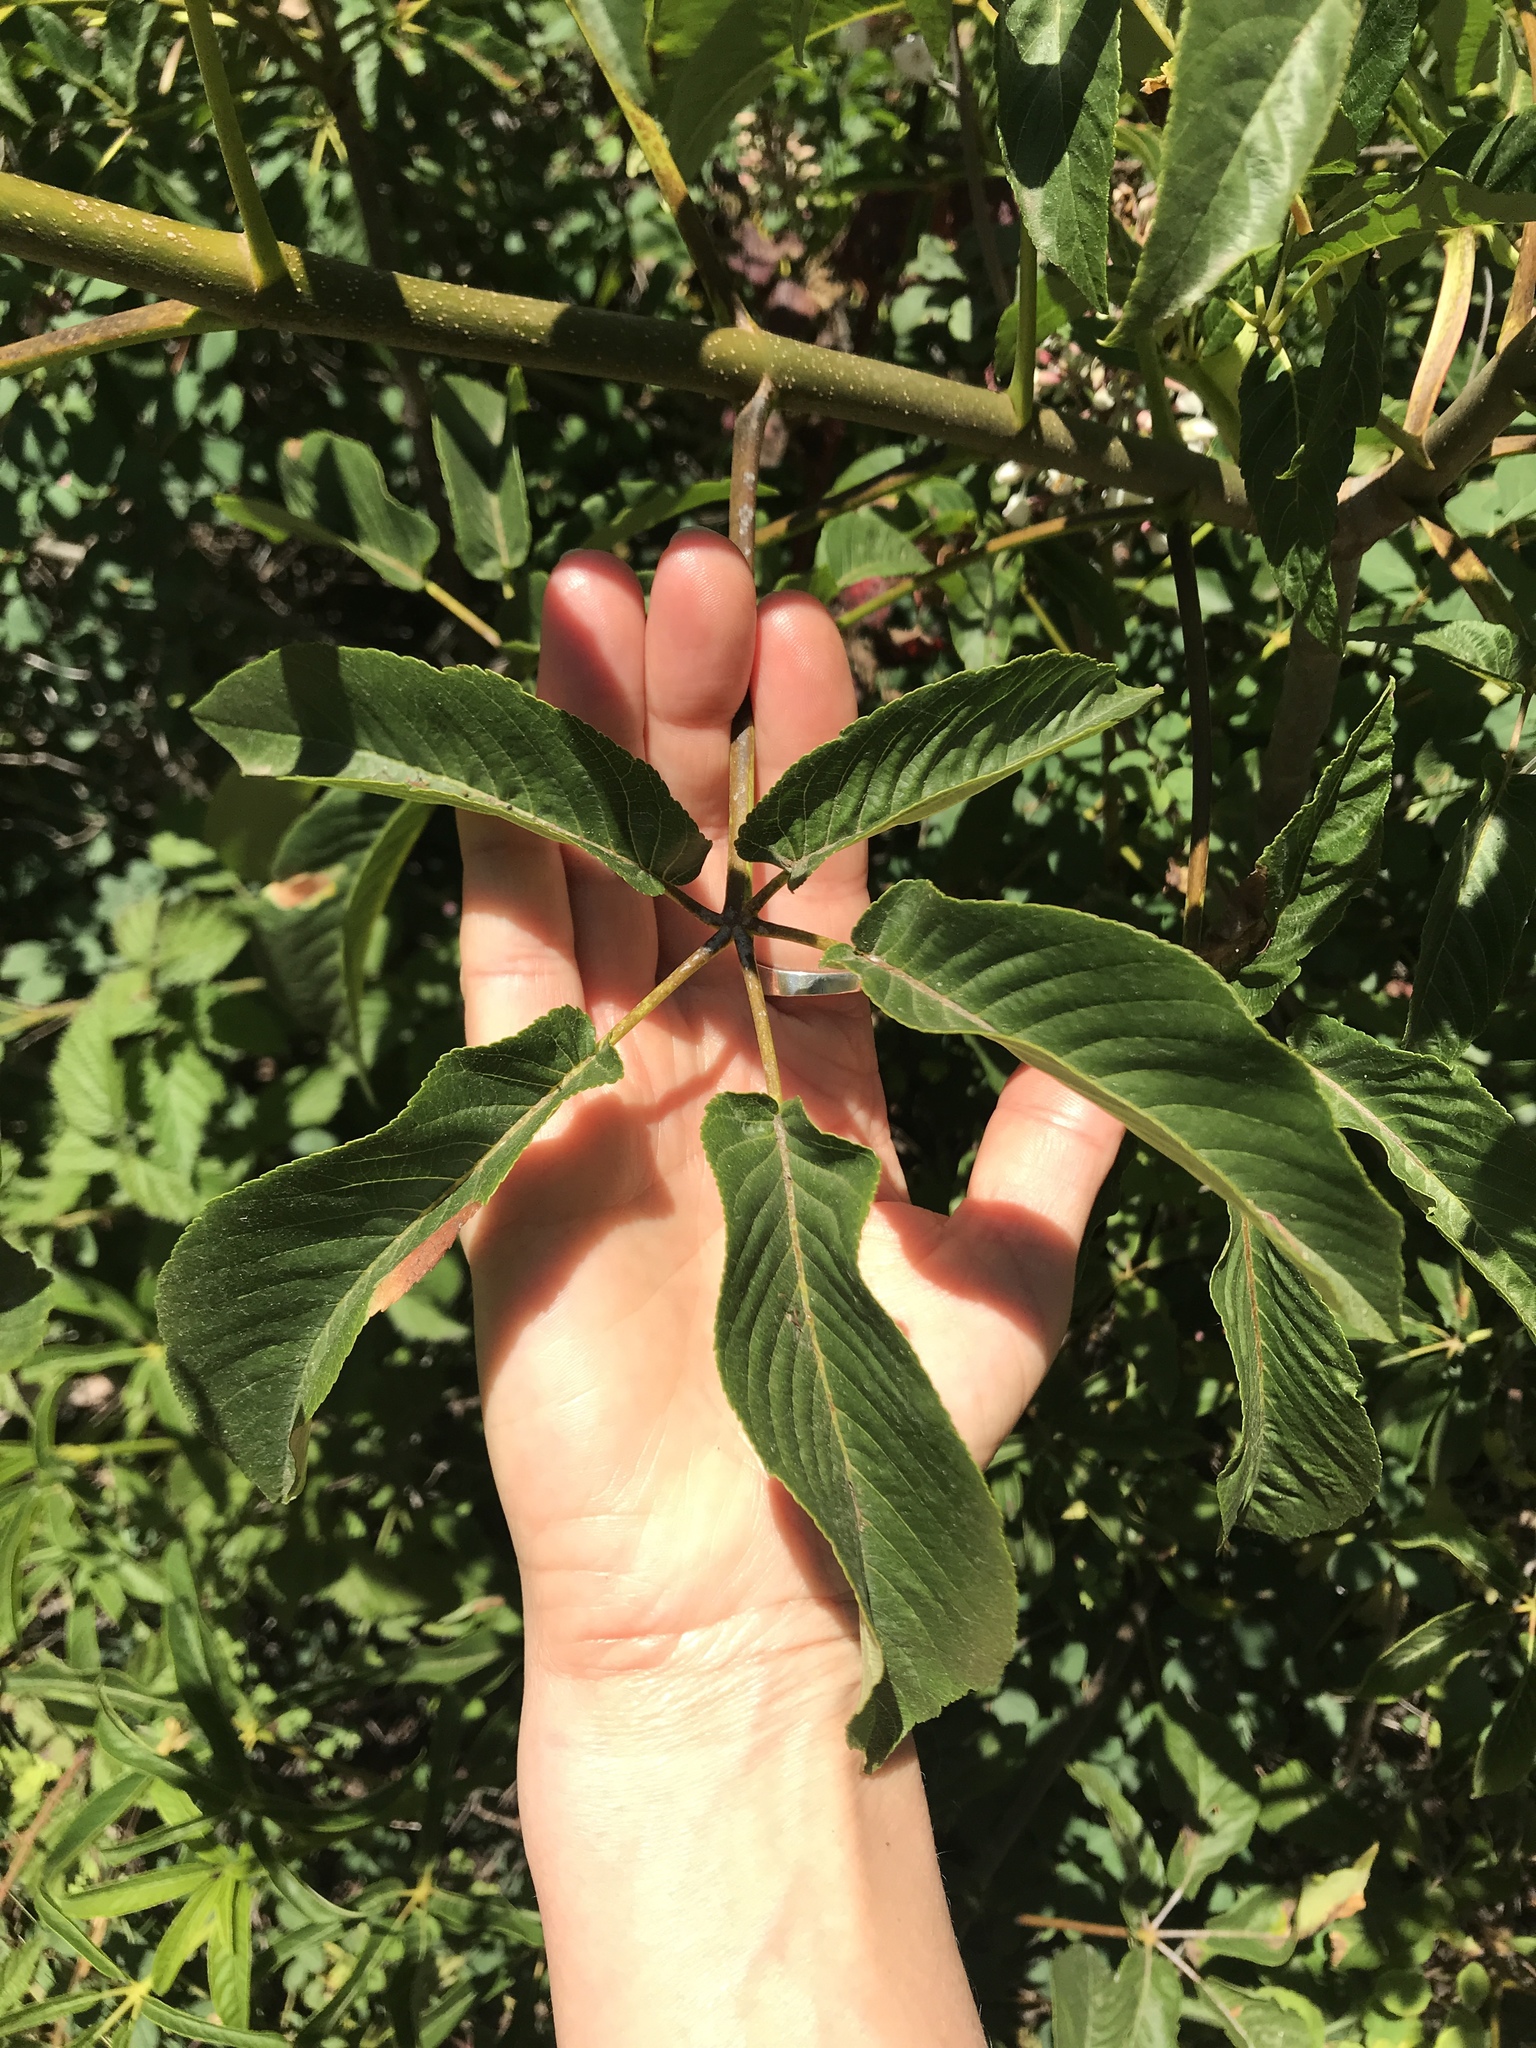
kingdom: Plantae
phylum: Tracheophyta
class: Magnoliopsida
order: Sapindales
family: Sapindaceae
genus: Aesculus
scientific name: Aesculus californica
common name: California buckeye
